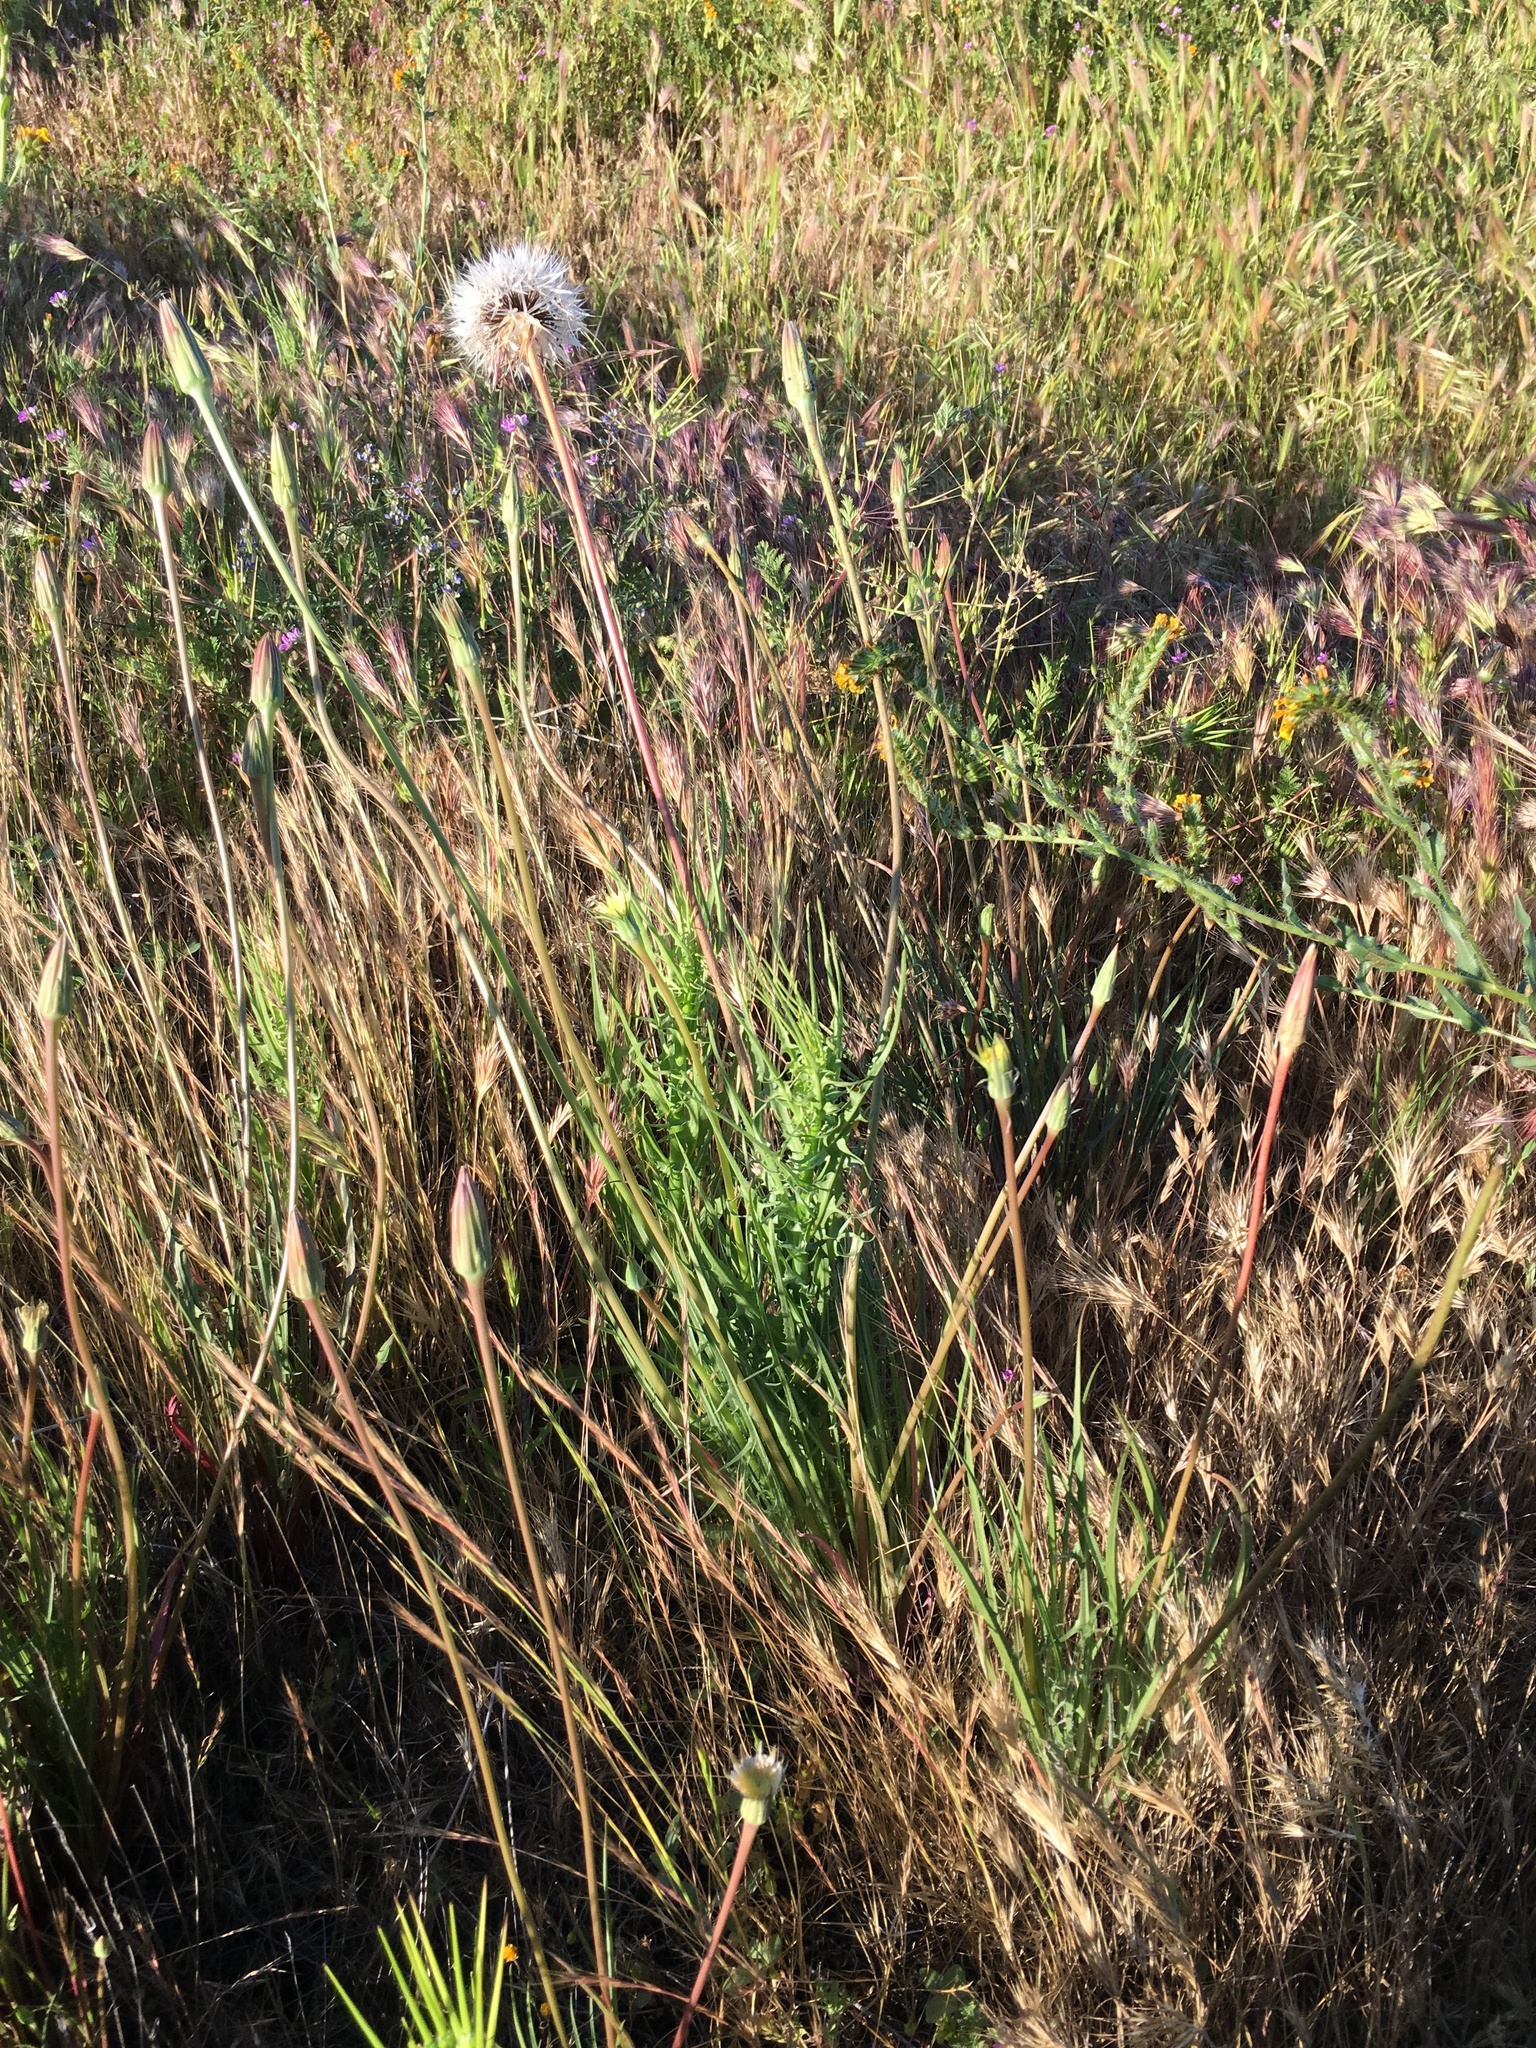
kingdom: Plantae
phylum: Tracheophyta
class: Magnoliopsida
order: Asterales
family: Asteraceae
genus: Microseris
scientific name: Microseris lindleyi
